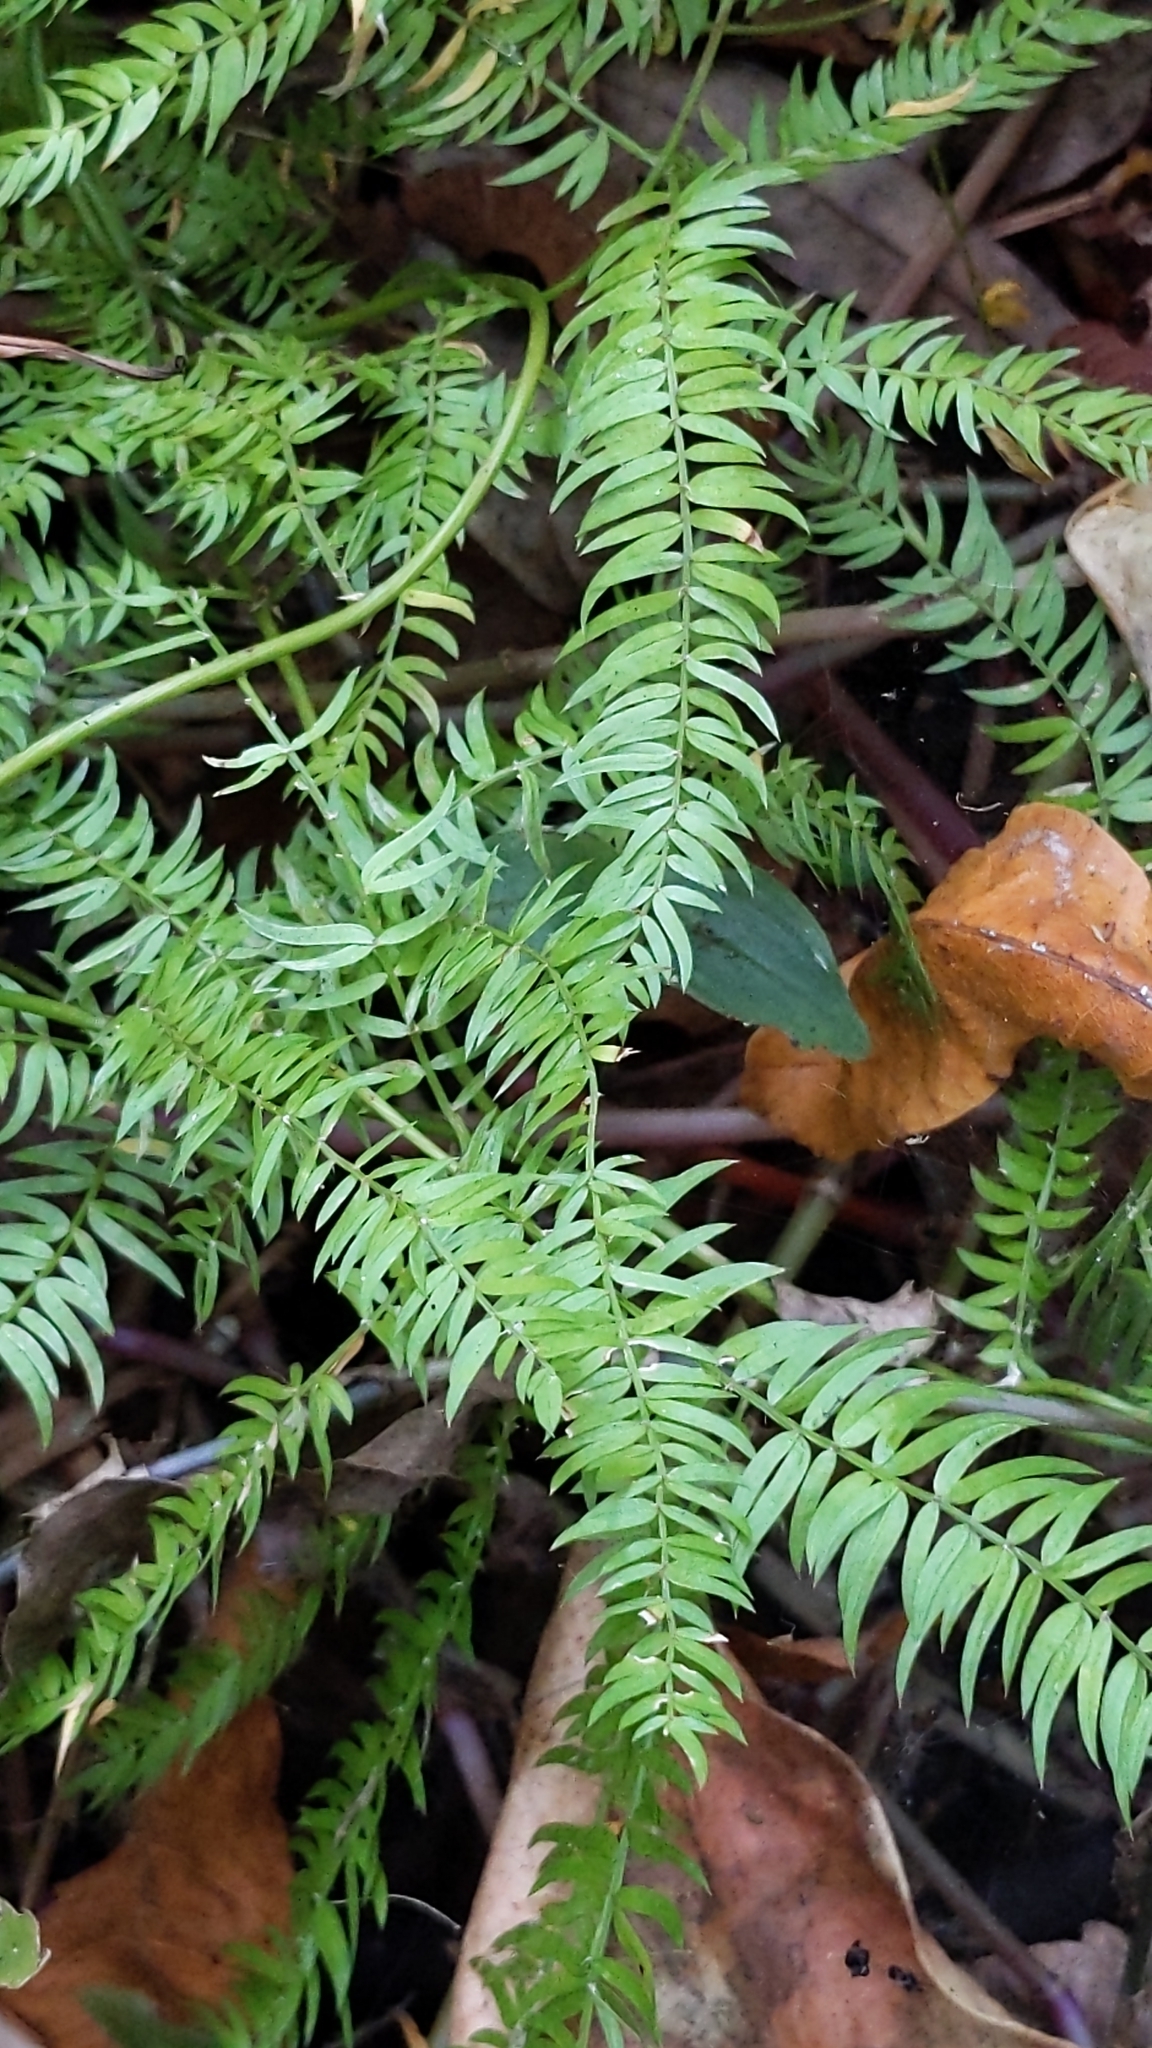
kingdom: Plantae
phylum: Tracheophyta
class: Liliopsida
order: Asparagales
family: Asparagaceae
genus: Asparagus
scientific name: Asparagus scandens
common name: Asparagus-fern
